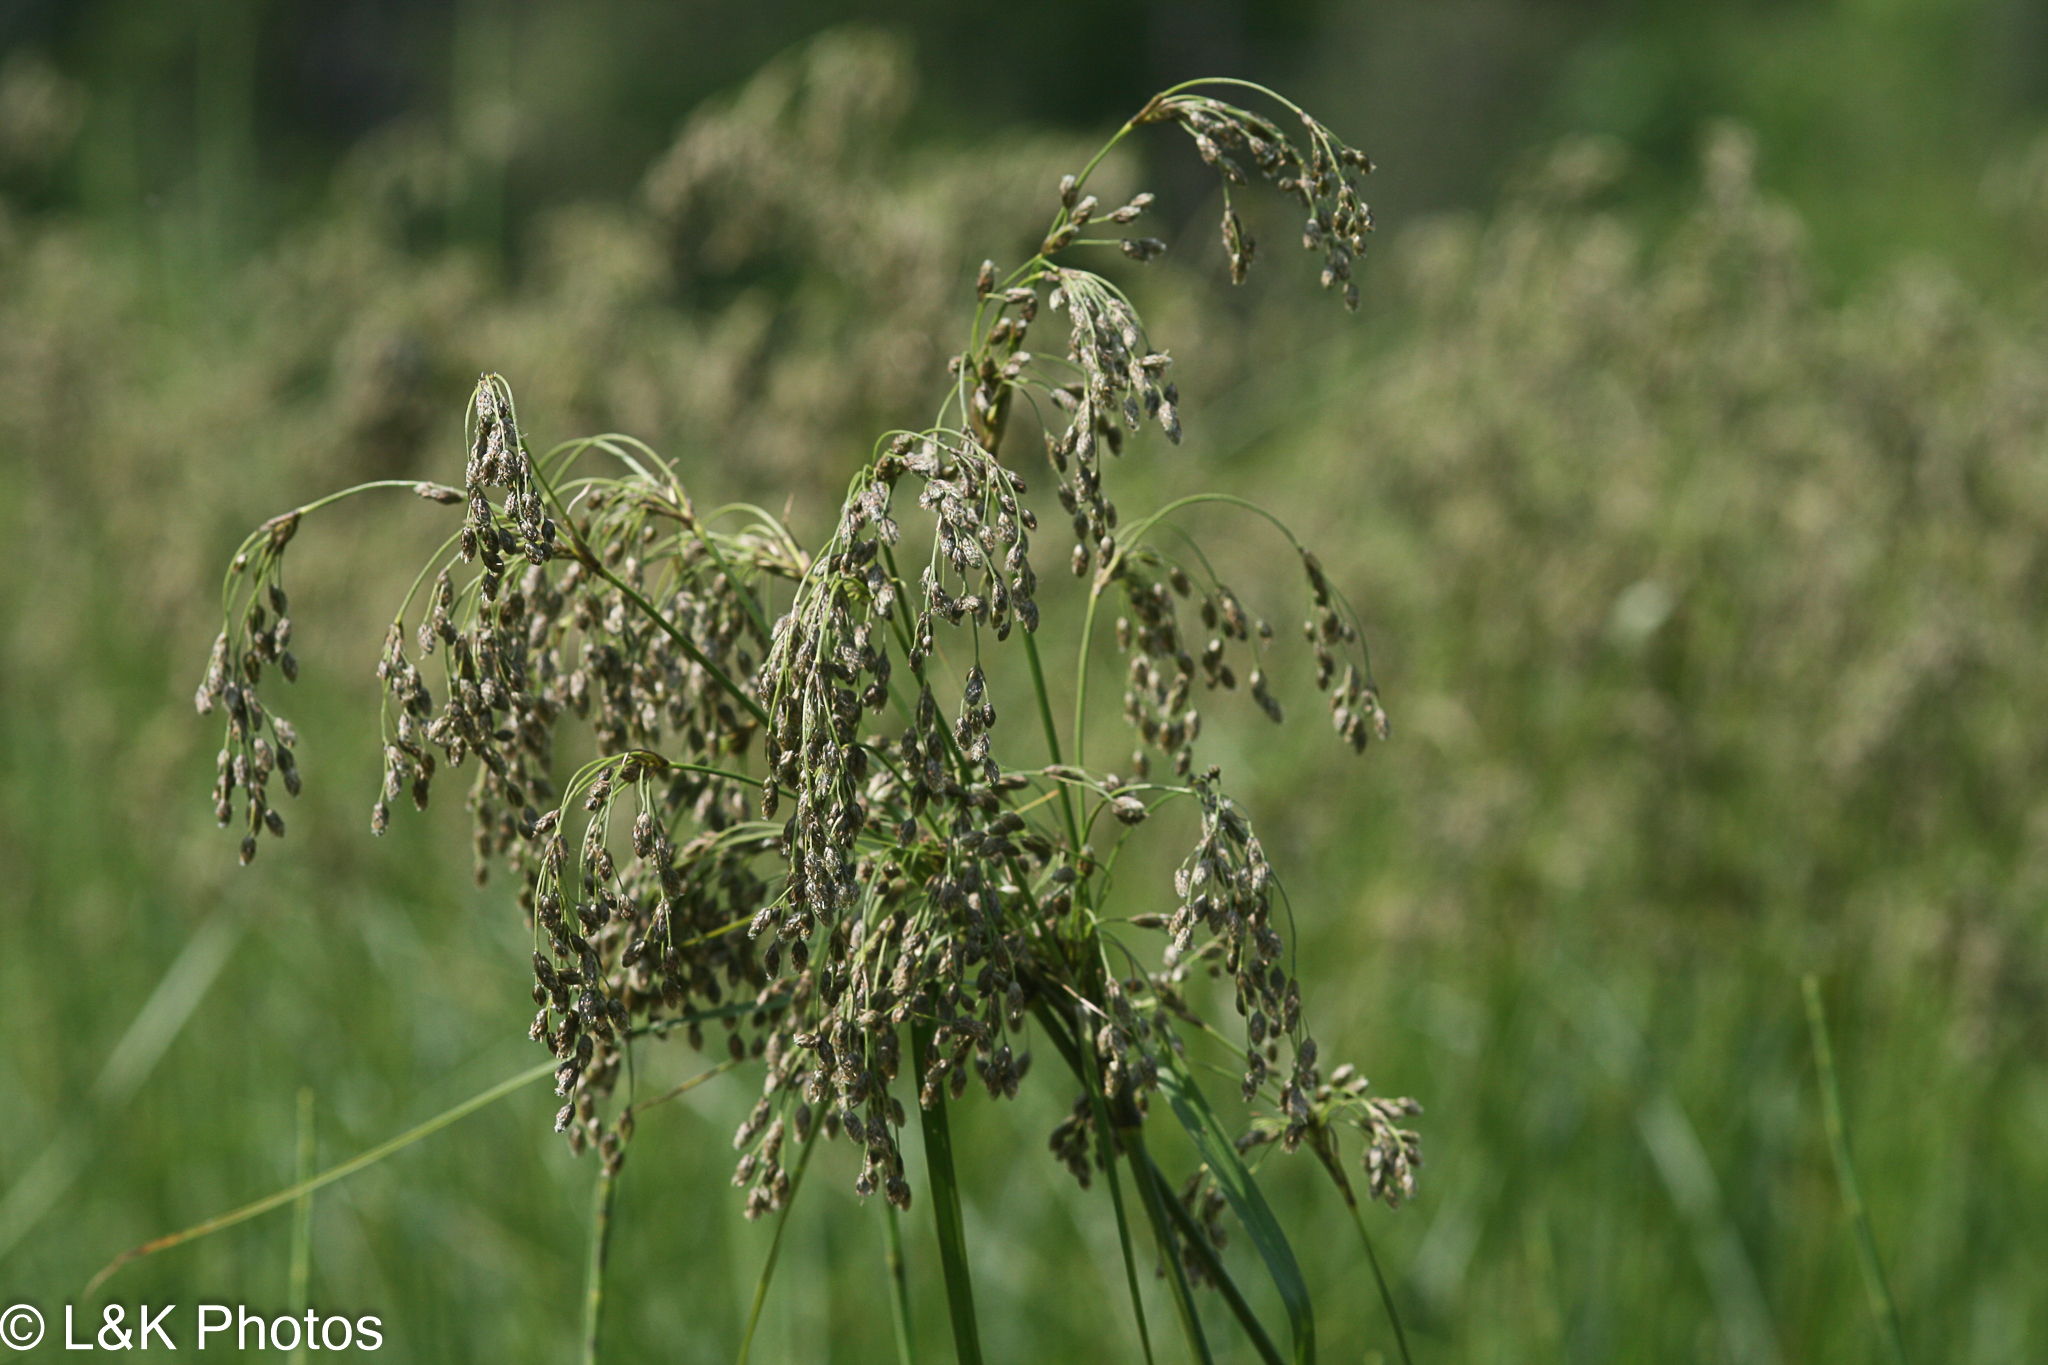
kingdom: Plantae
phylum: Tracheophyta
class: Liliopsida
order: Poales
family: Cyperaceae
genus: Scirpus
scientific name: Scirpus atrocinctus
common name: Black-girdled bulrush
